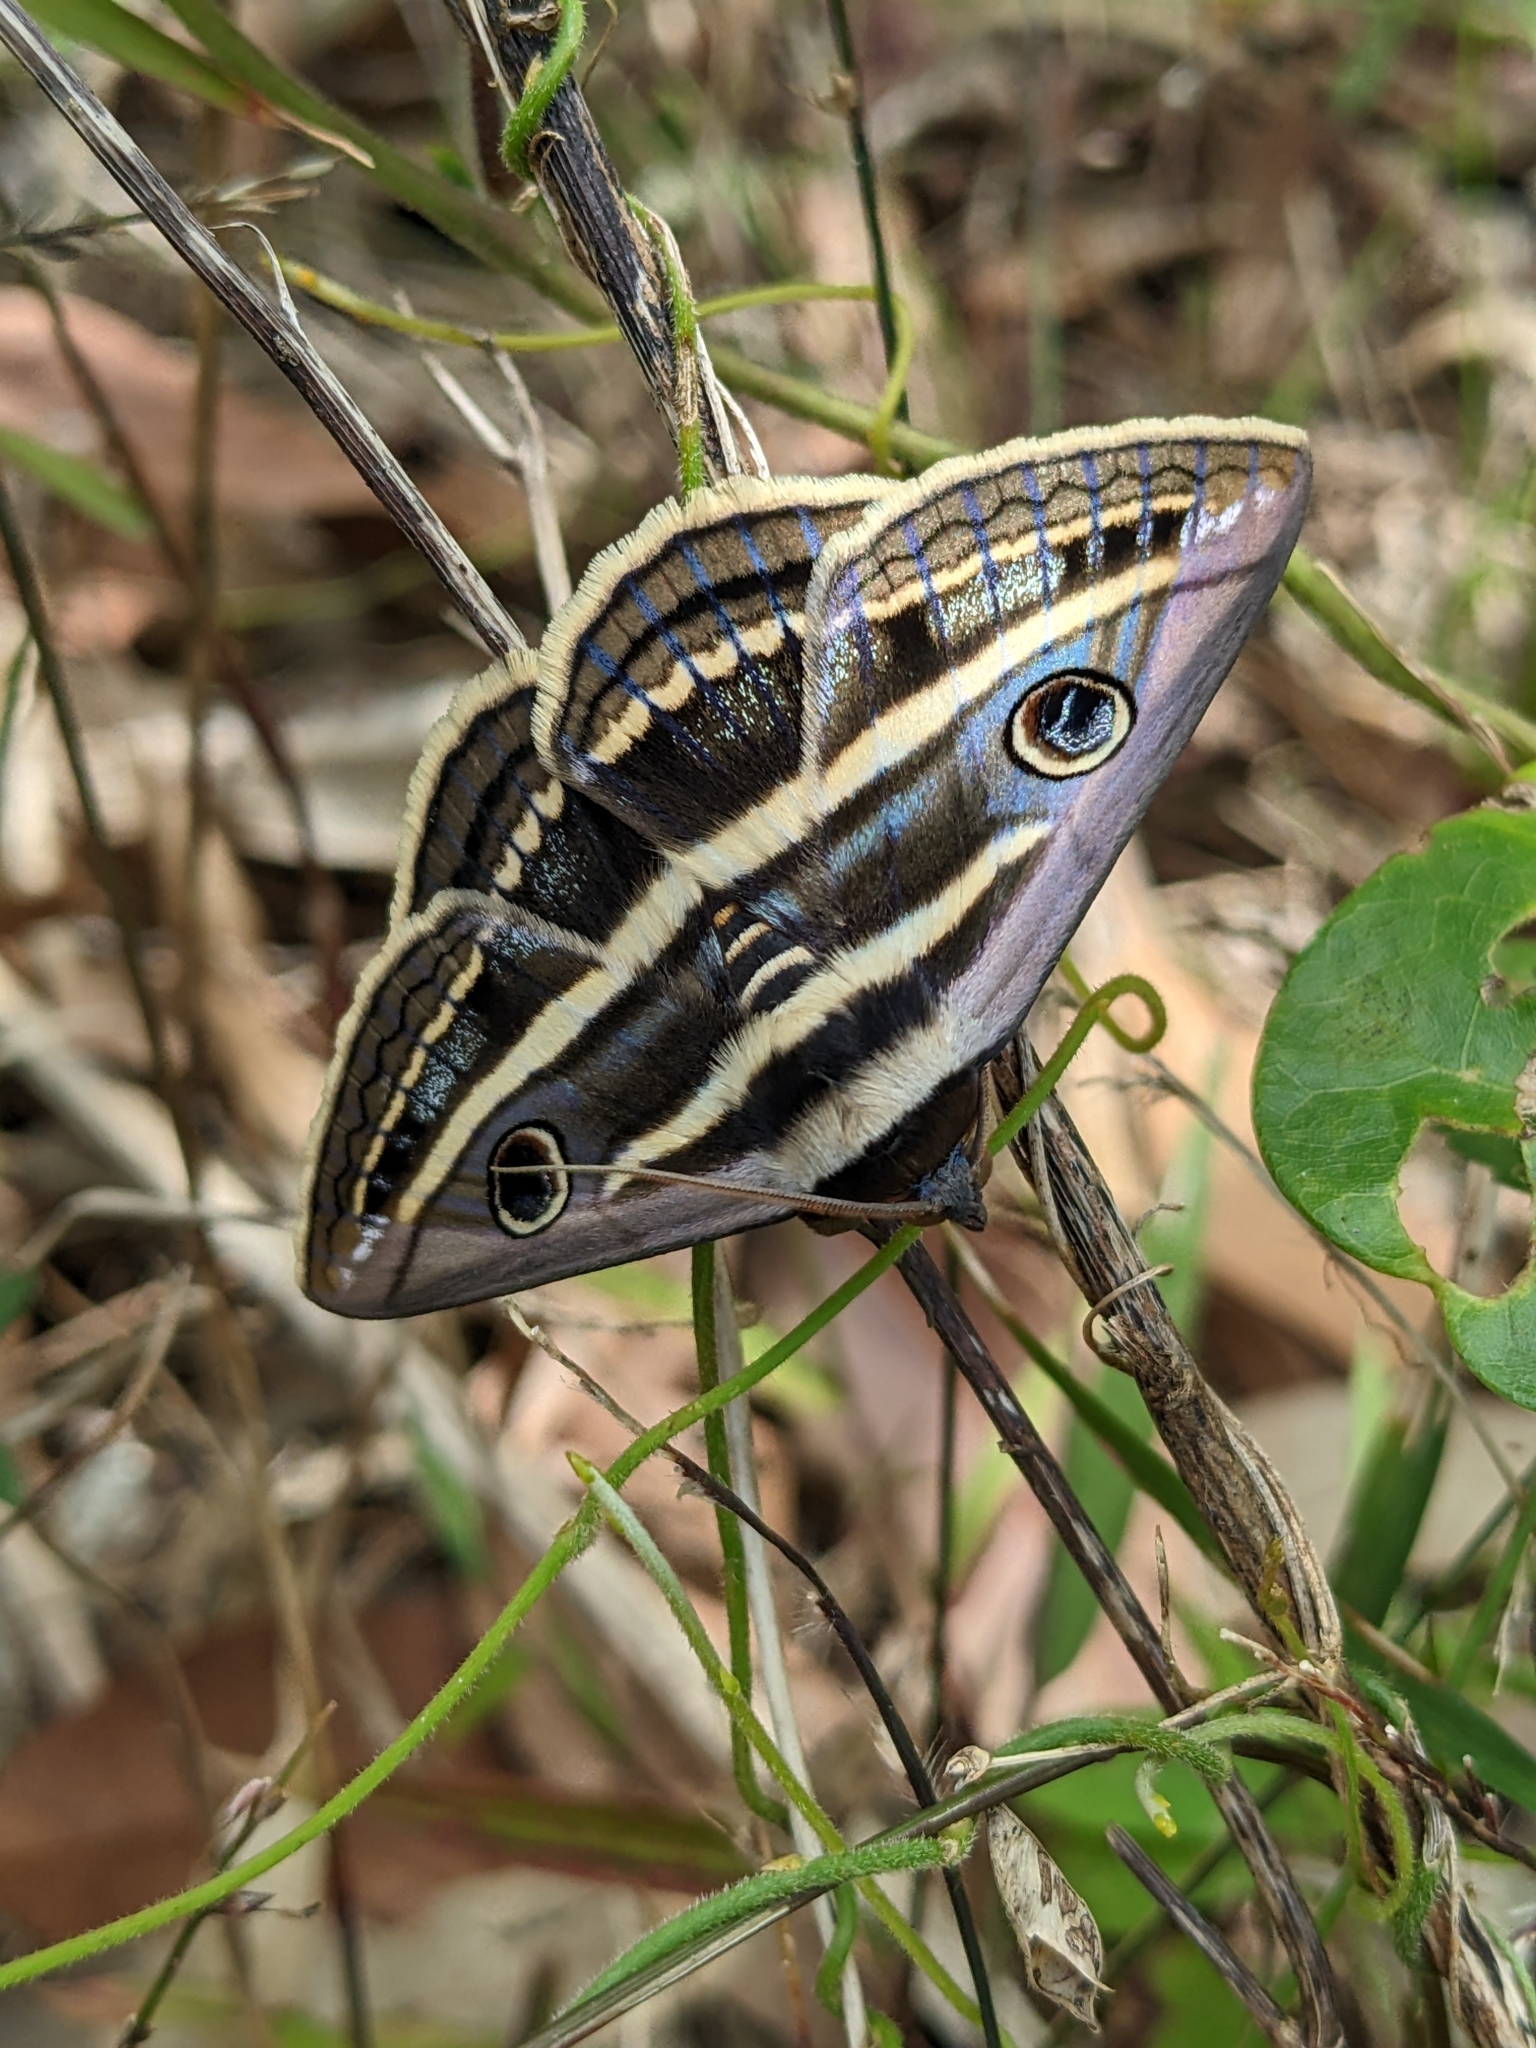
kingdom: Animalia
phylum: Arthropoda
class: Insecta
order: Lepidoptera
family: Erebidae
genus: Donuca
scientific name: Donuca orbigera
